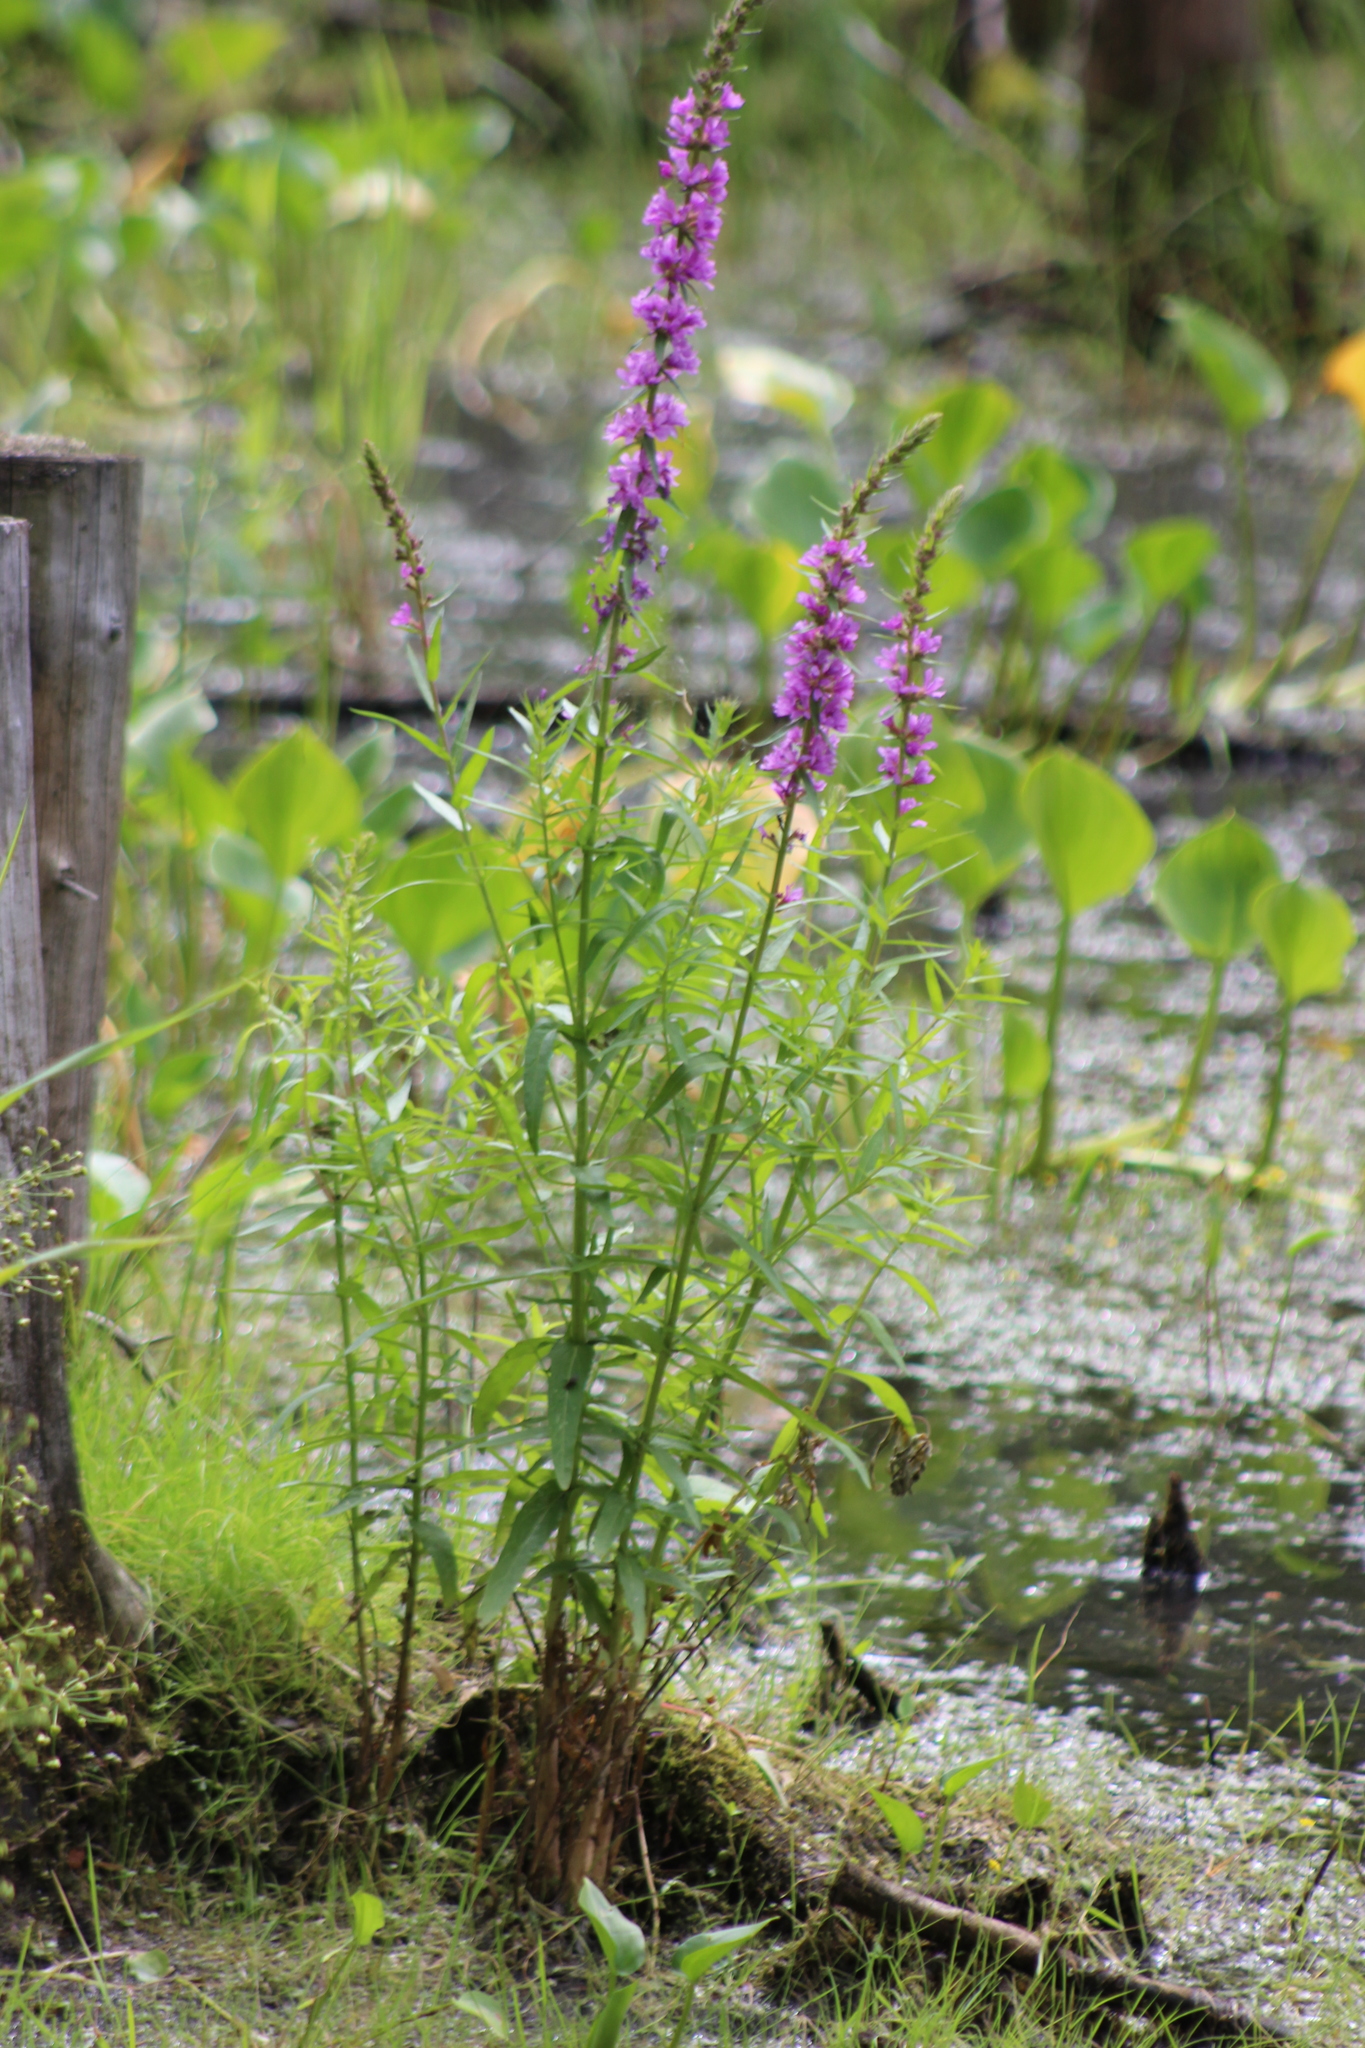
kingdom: Plantae
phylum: Tracheophyta
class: Magnoliopsida
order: Myrtales
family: Lythraceae
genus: Lythrum
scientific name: Lythrum salicaria
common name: Purple loosestrife
